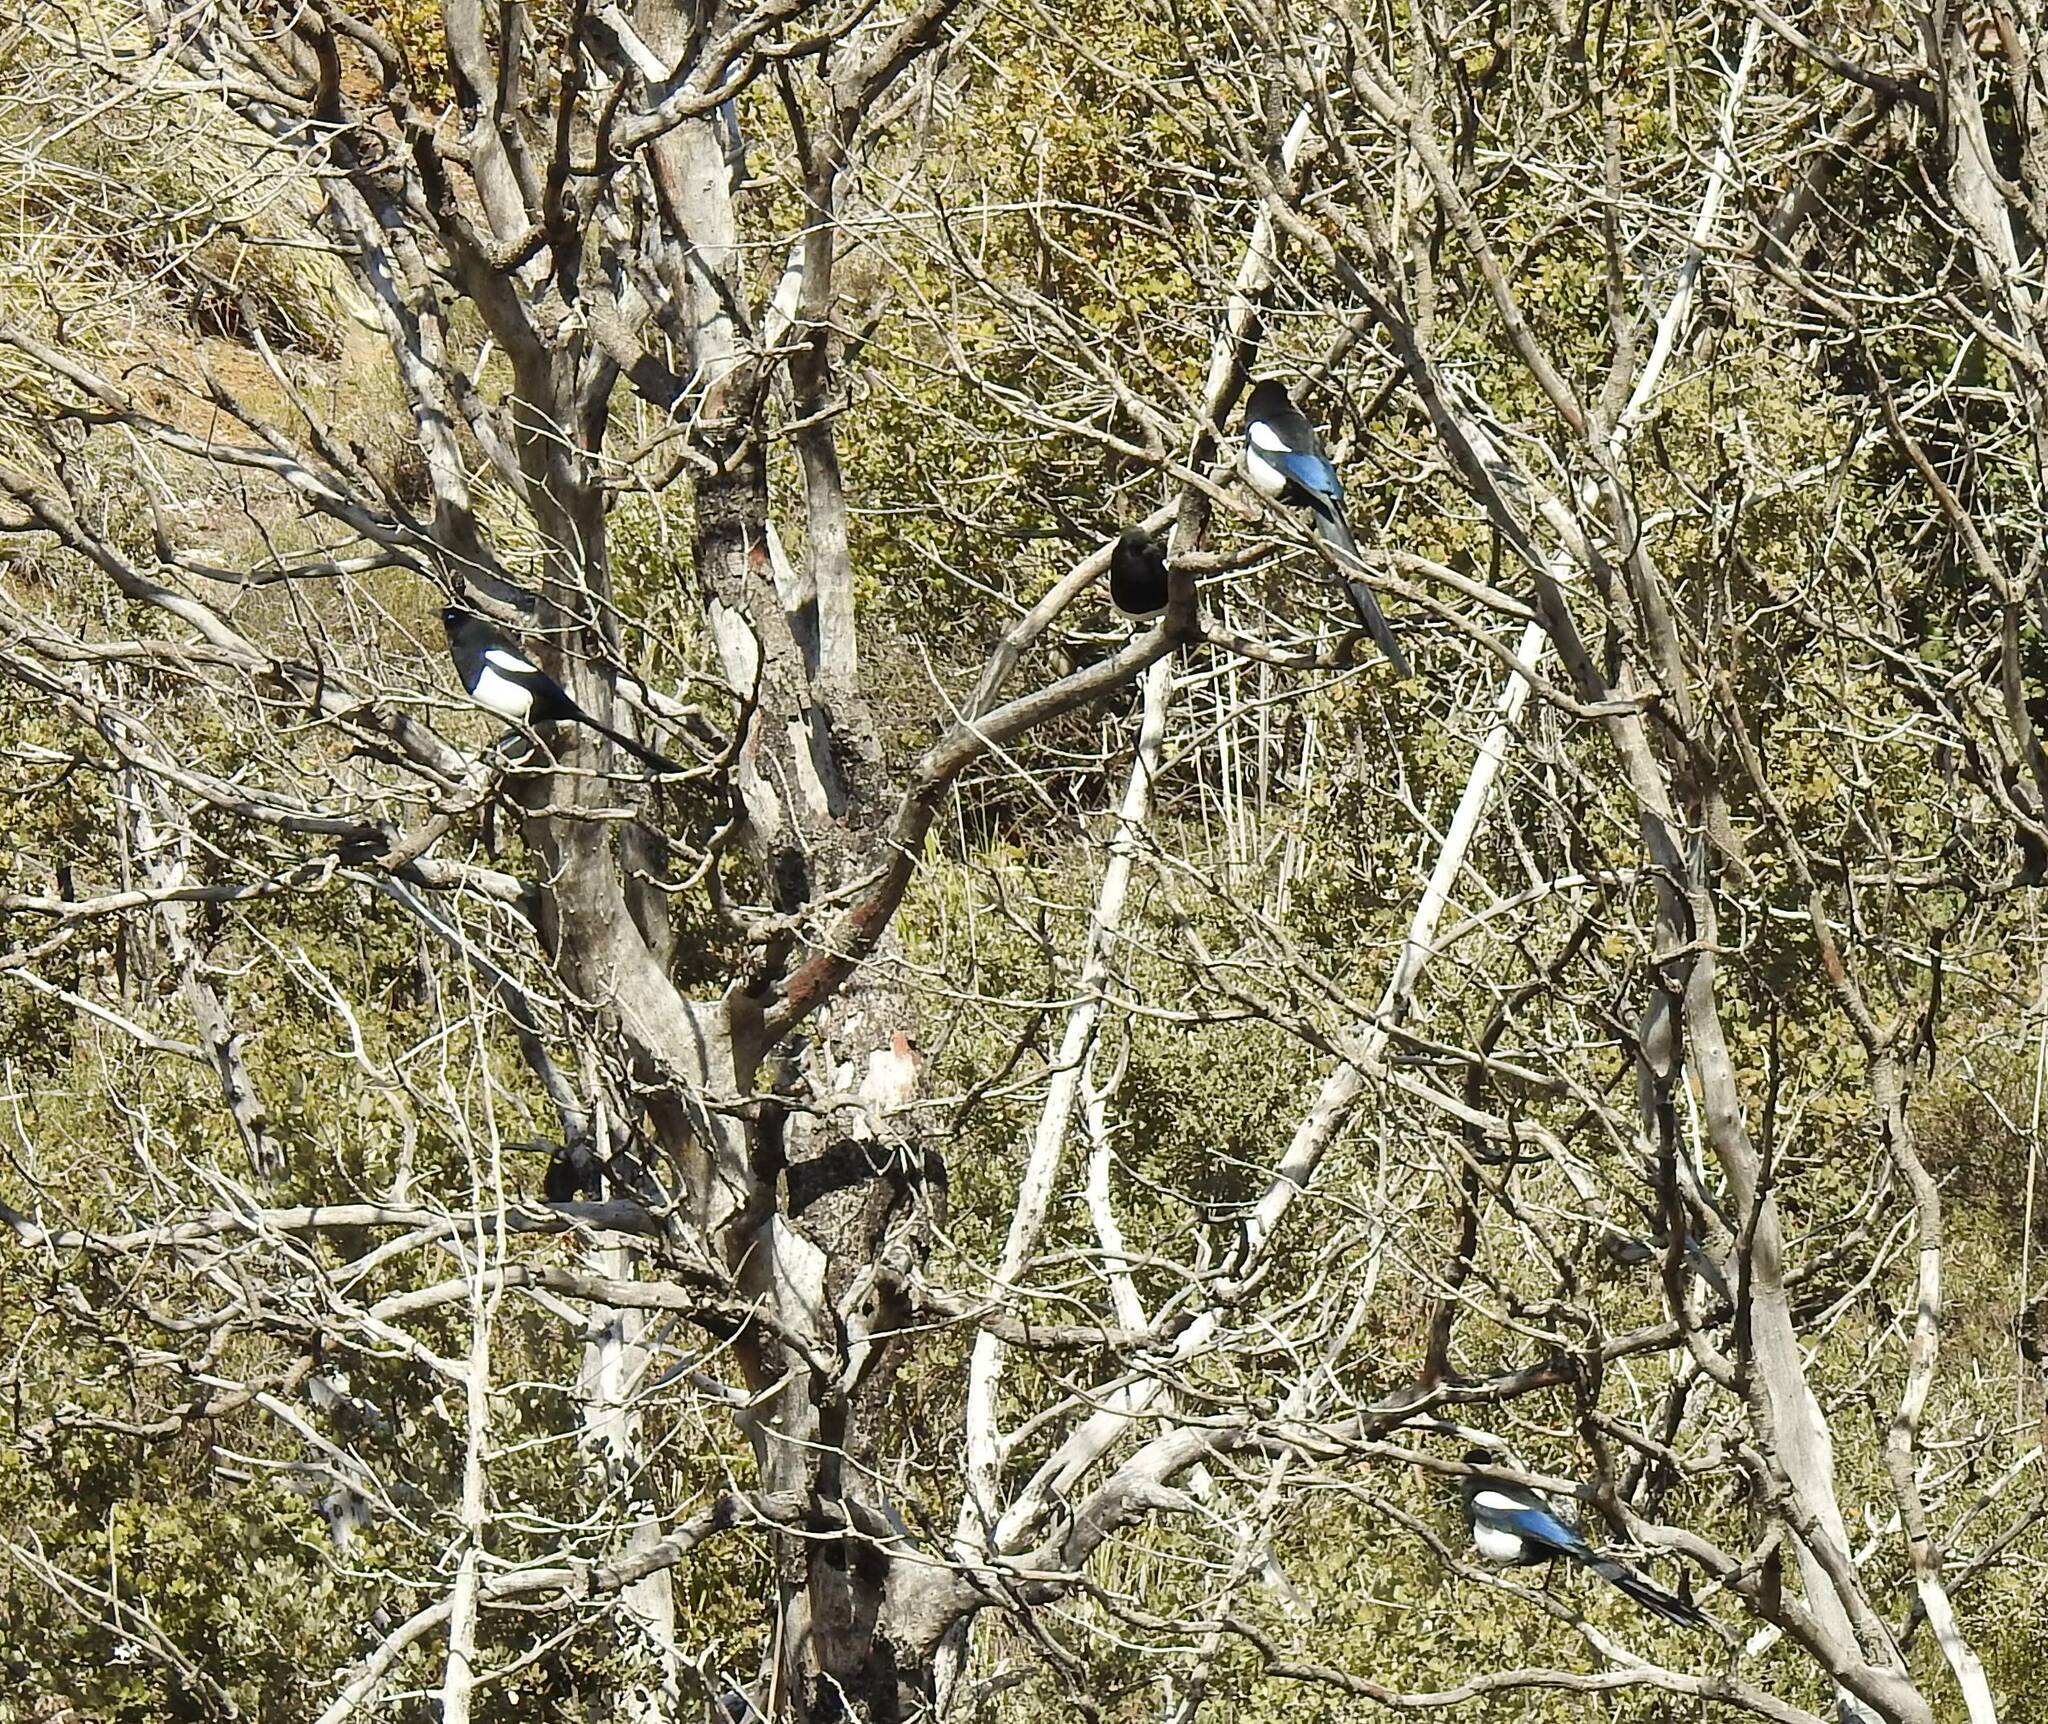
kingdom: Animalia
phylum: Chordata
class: Aves
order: Passeriformes
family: Corvidae
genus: Pica
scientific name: Pica mauritanica
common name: Maghreb magpie
